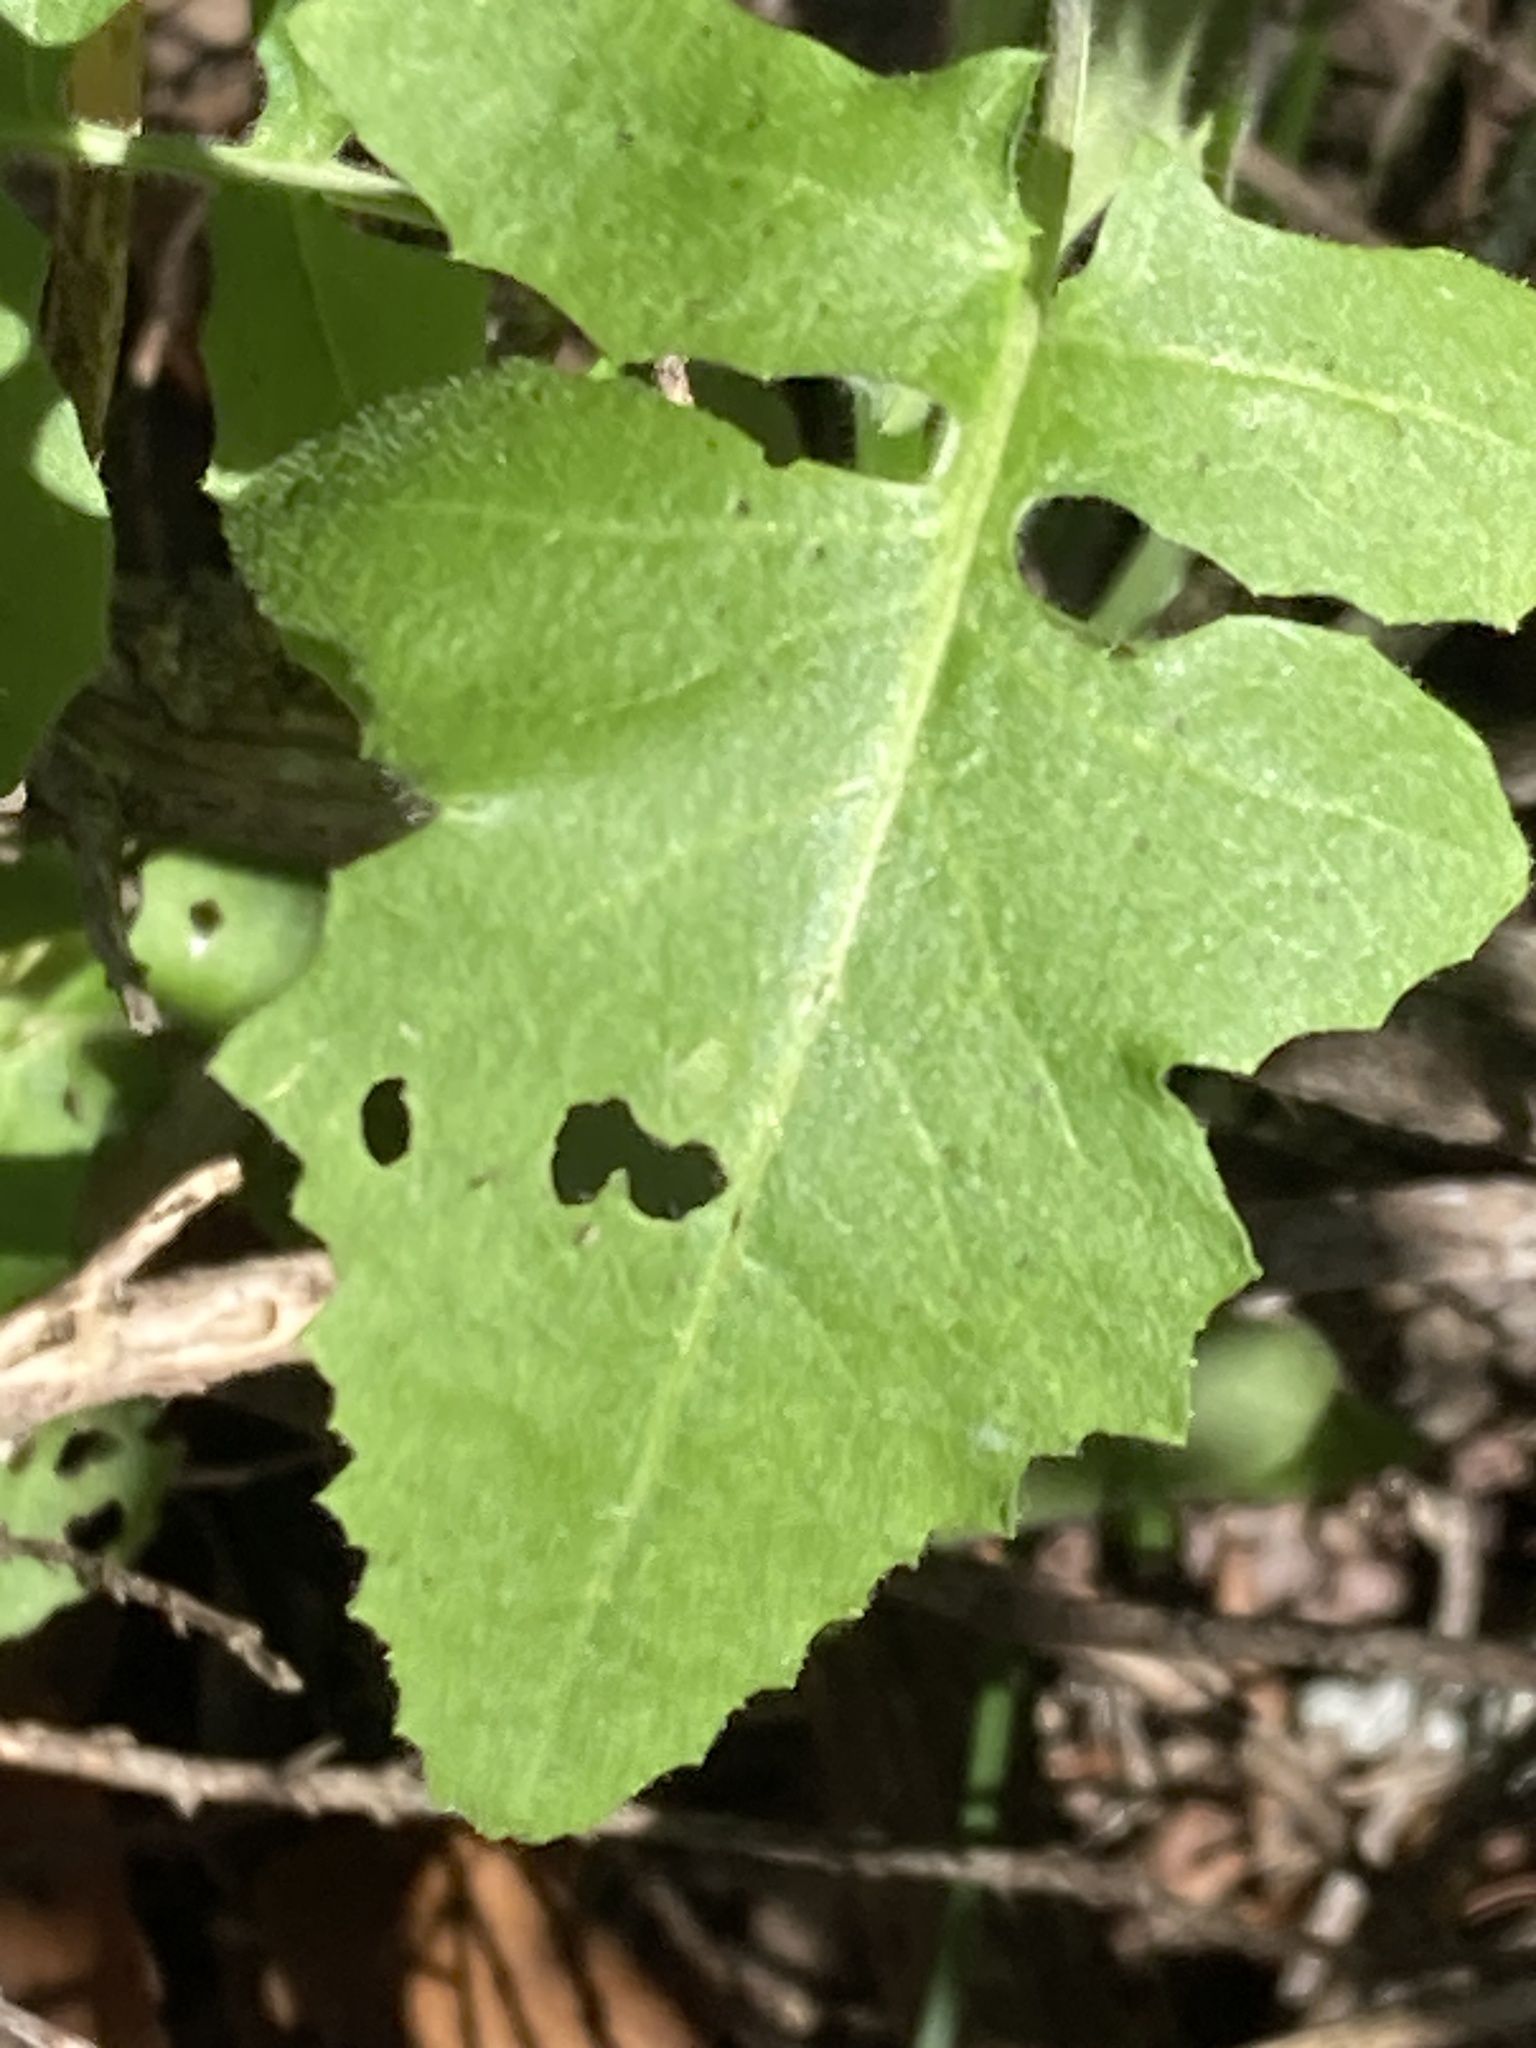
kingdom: Plantae
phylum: Tracheophyta
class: Magnoliopsida
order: Brassicales
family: Brassicaceae
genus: Streptanthus
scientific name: Streptanthus petiolaris
